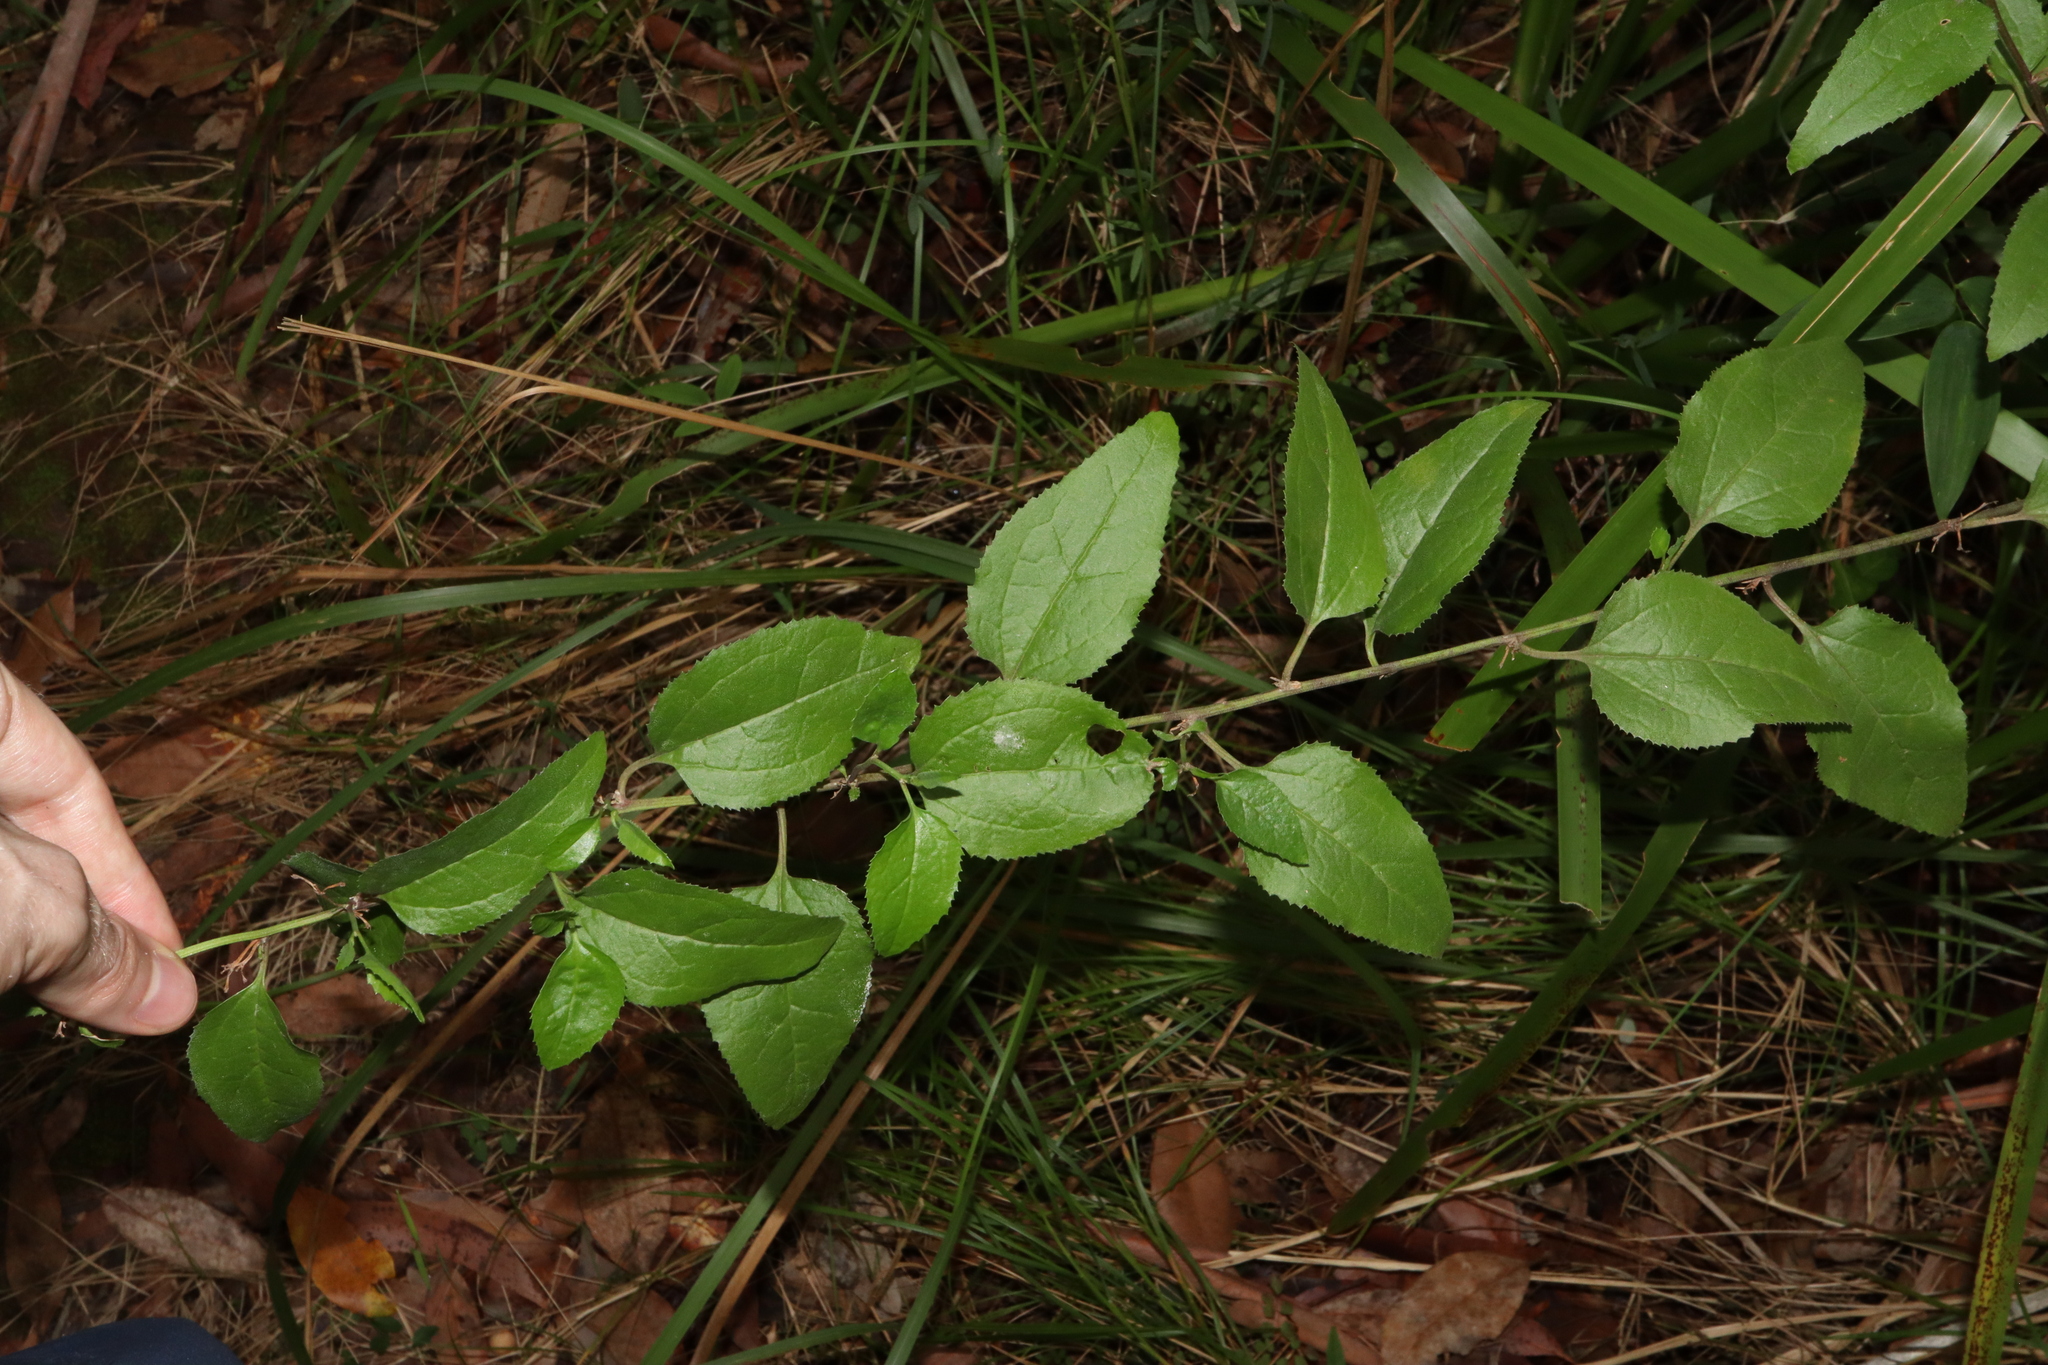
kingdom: Plantae
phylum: Tracheophyta
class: Magnoliopsida
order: Asterales
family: Goodeniaceae
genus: Goodenia
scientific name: Goodenia ovata
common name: Hop goodenia
